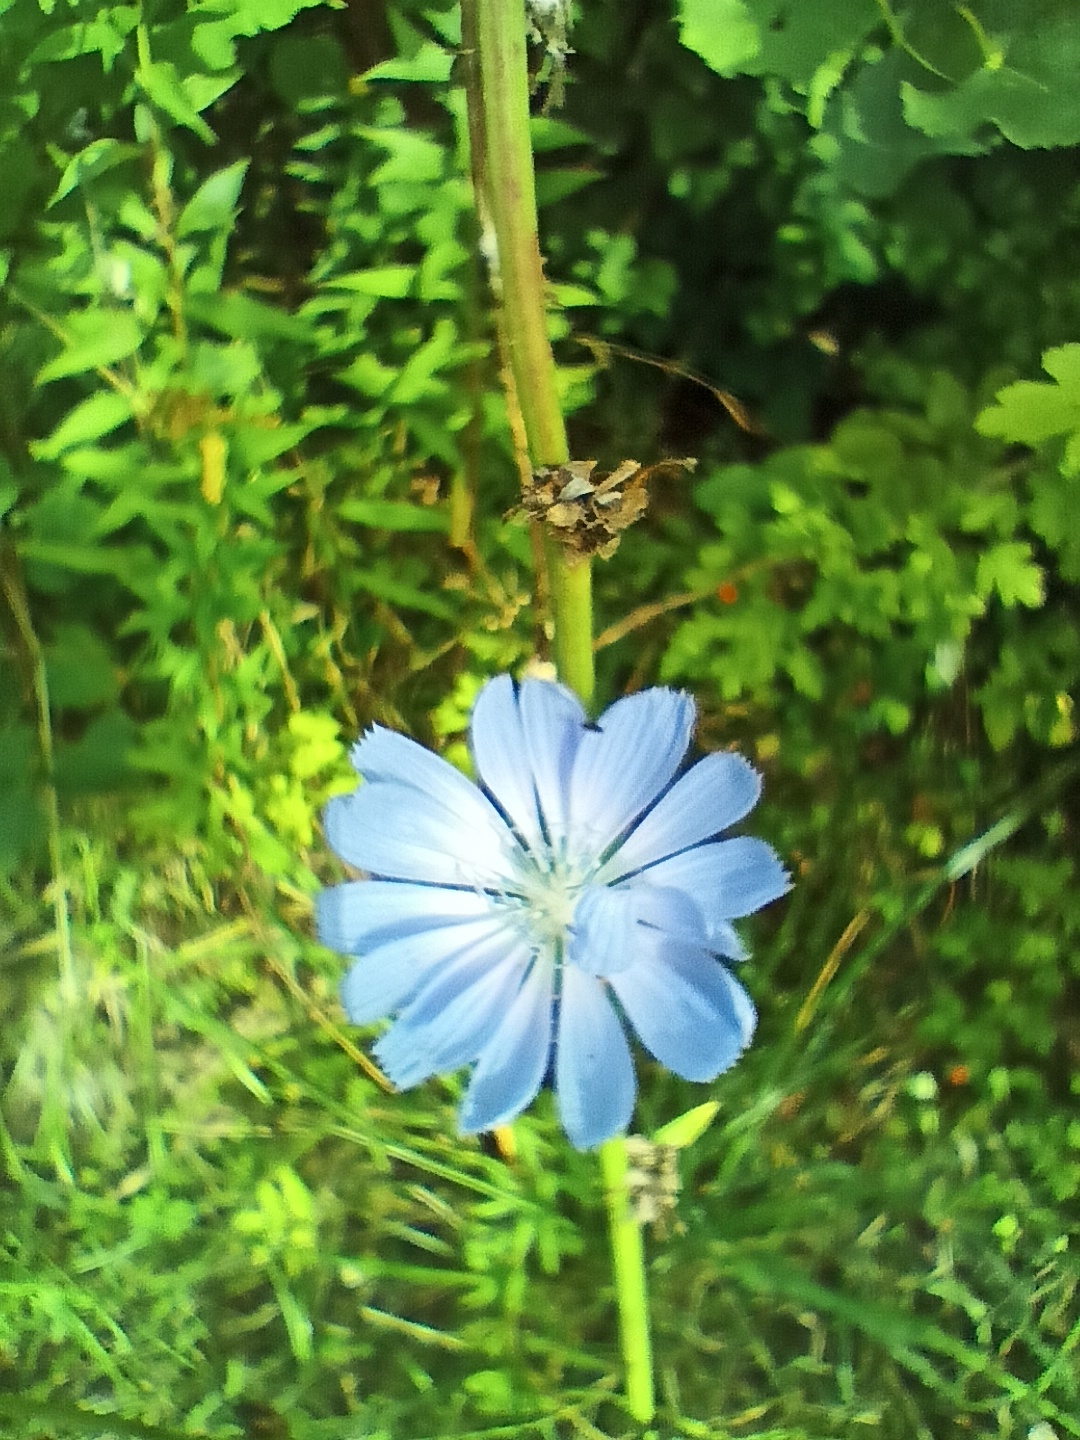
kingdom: Plantae
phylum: Tracheophyta
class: Magnoliopsida
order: Asterales
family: Asteraceae
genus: Cichorium
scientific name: Cichorium intybus
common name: Chicory
